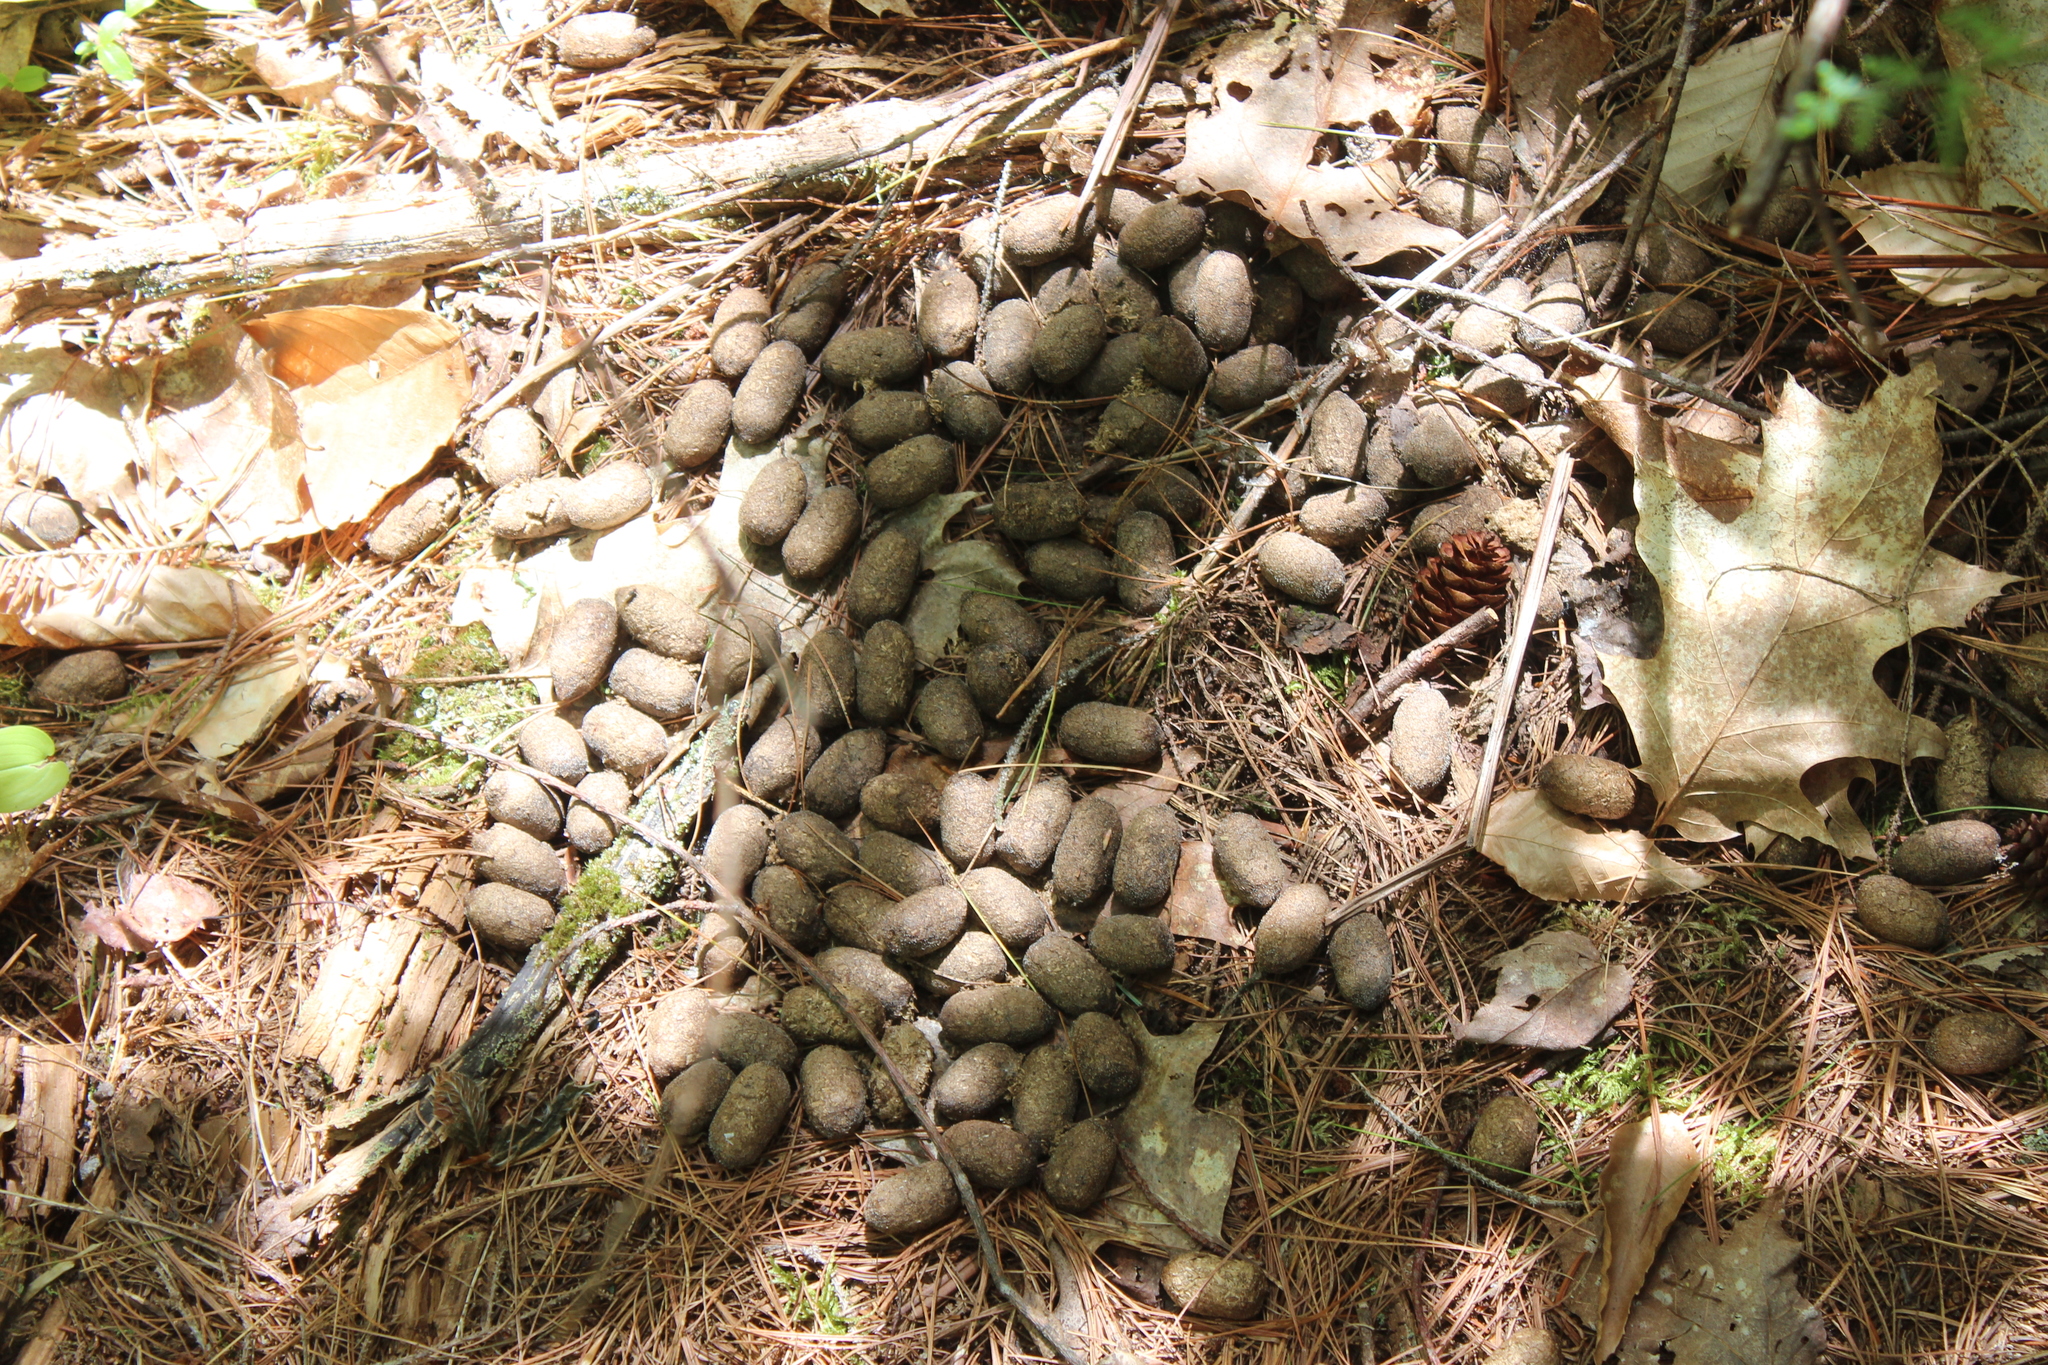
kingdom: Animalia
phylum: Chordata
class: Mammalia
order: Artiodactyla
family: Cervidae
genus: Alces
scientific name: Alces alces
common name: Moose
